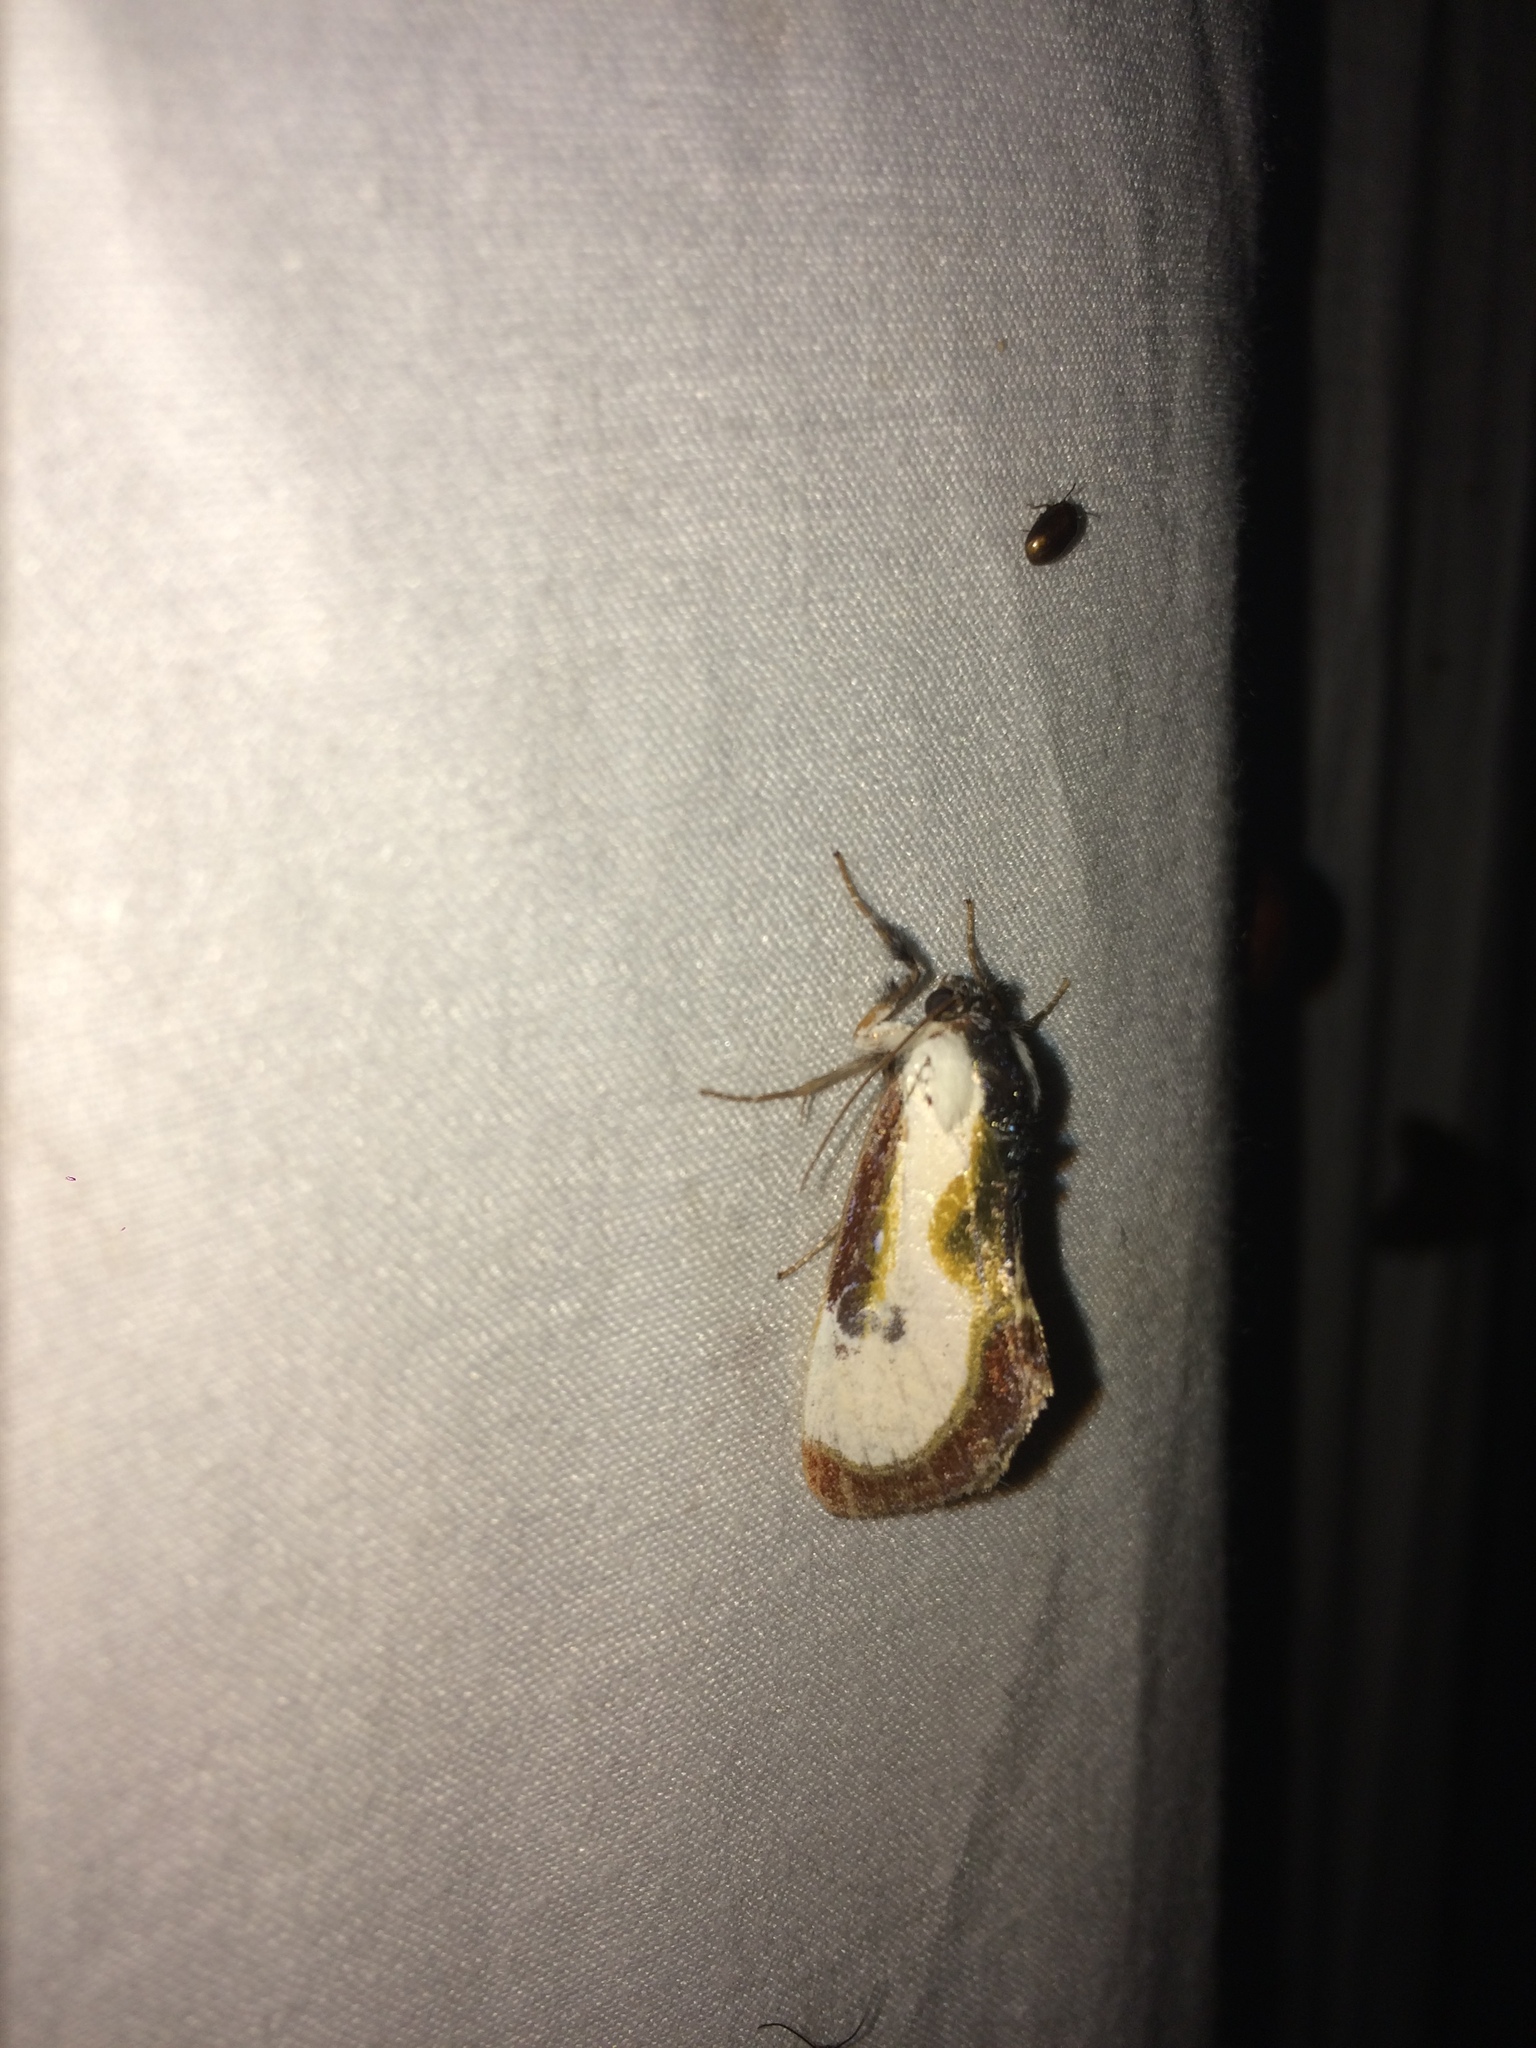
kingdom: Animalia
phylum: Arthropoda
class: Insecta
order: Lepidoptera
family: Noctuidae
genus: Eudryas
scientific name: Eudryas grata
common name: Beautiful wood-nymph
